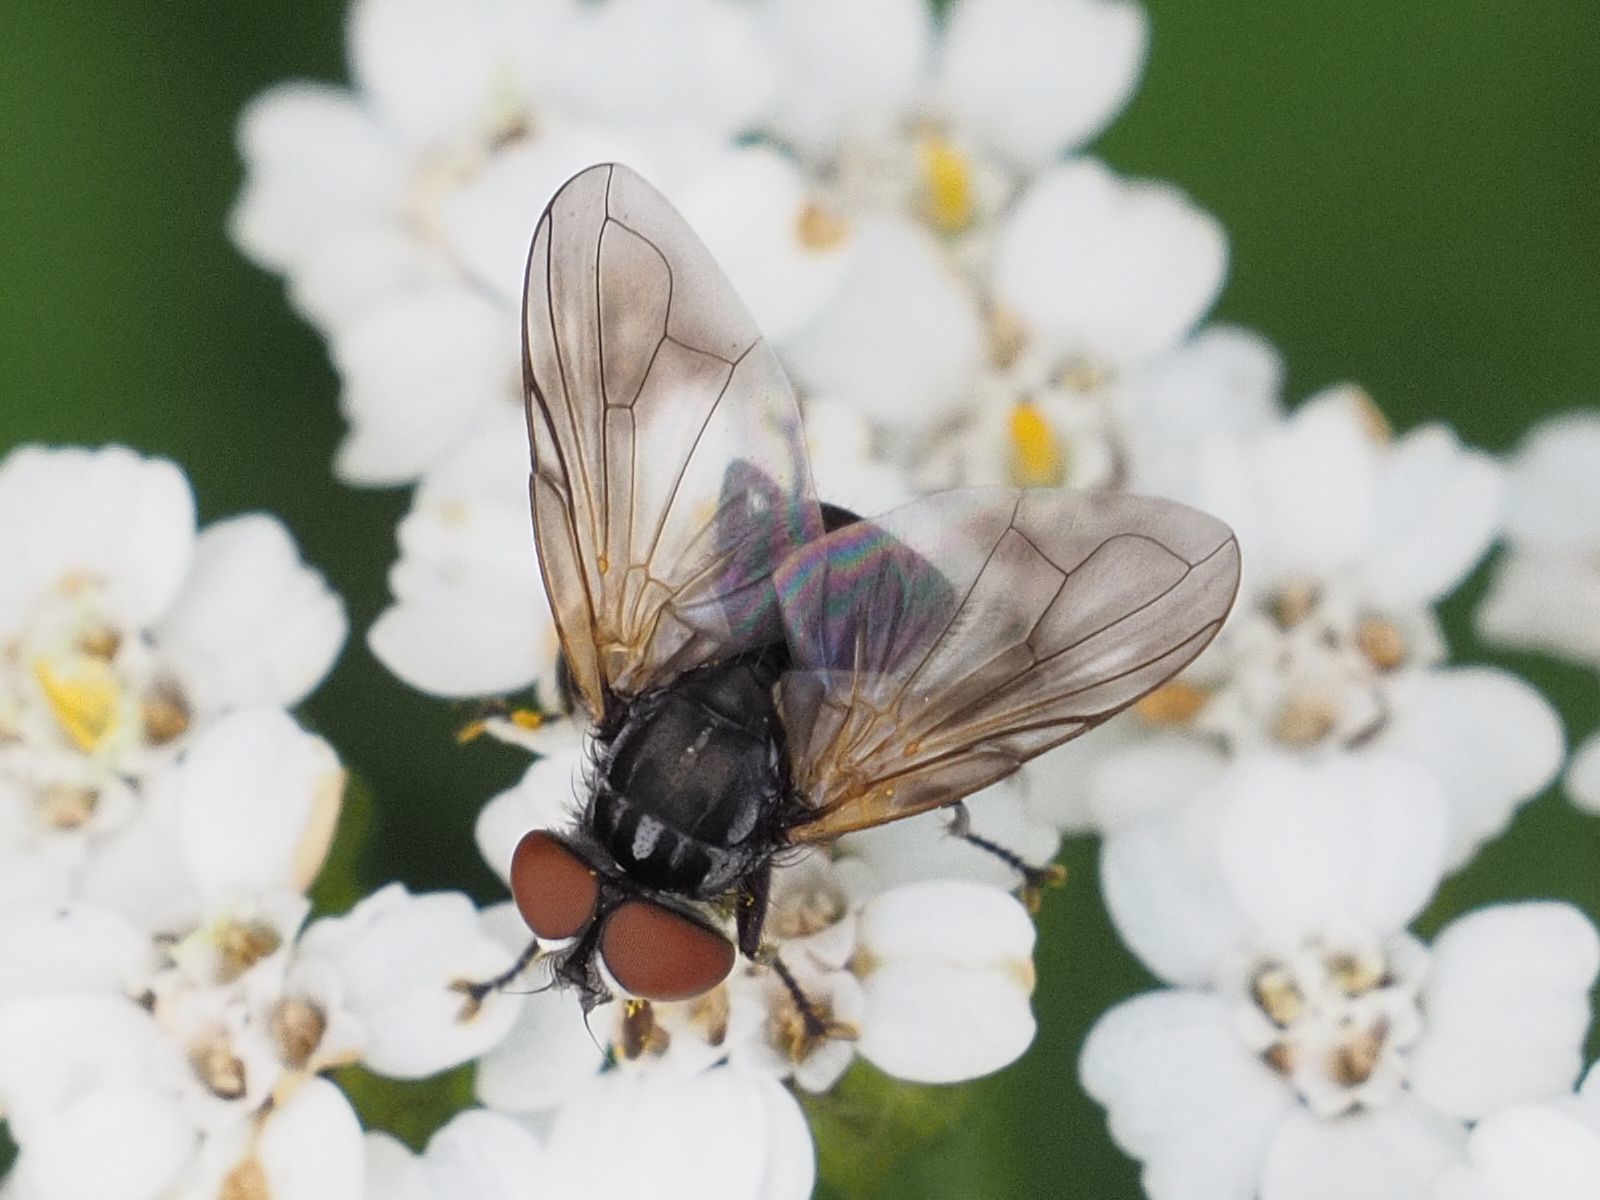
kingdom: Animalia
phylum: Arthropoda
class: Insecta
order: Diptera
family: Tachinidae
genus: Phasia
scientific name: Phasia obesa
